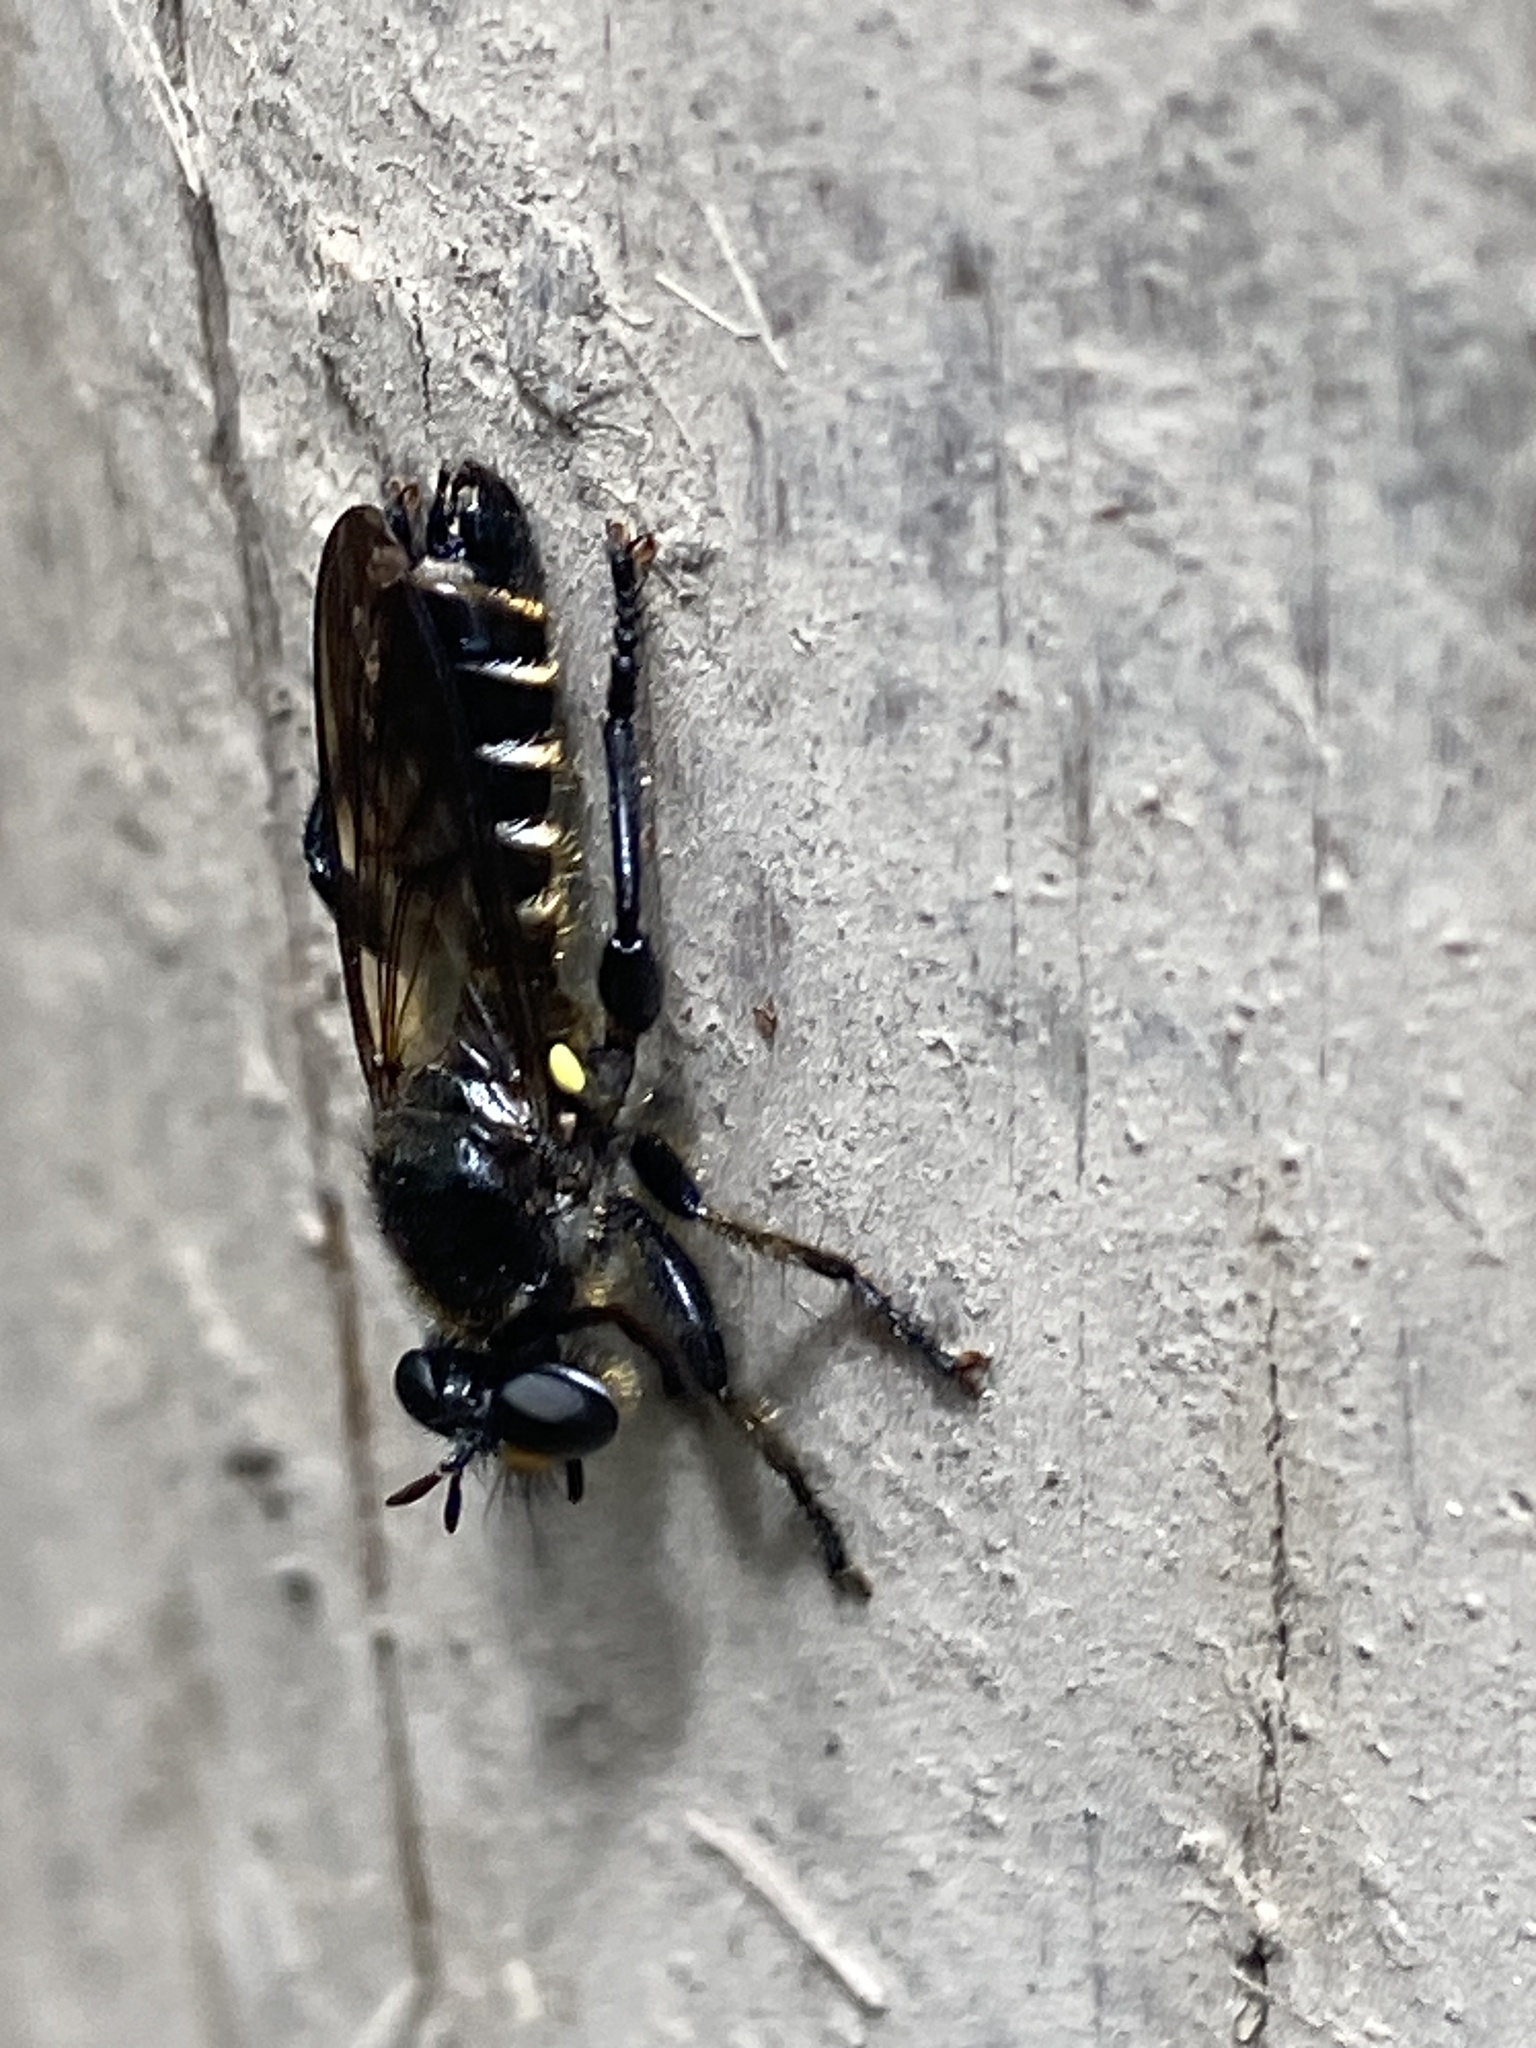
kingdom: Animalia
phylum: Arthropoda
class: Insecta
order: Diptera
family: Asilidae
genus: Lamyra
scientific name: Lamyra marginata
